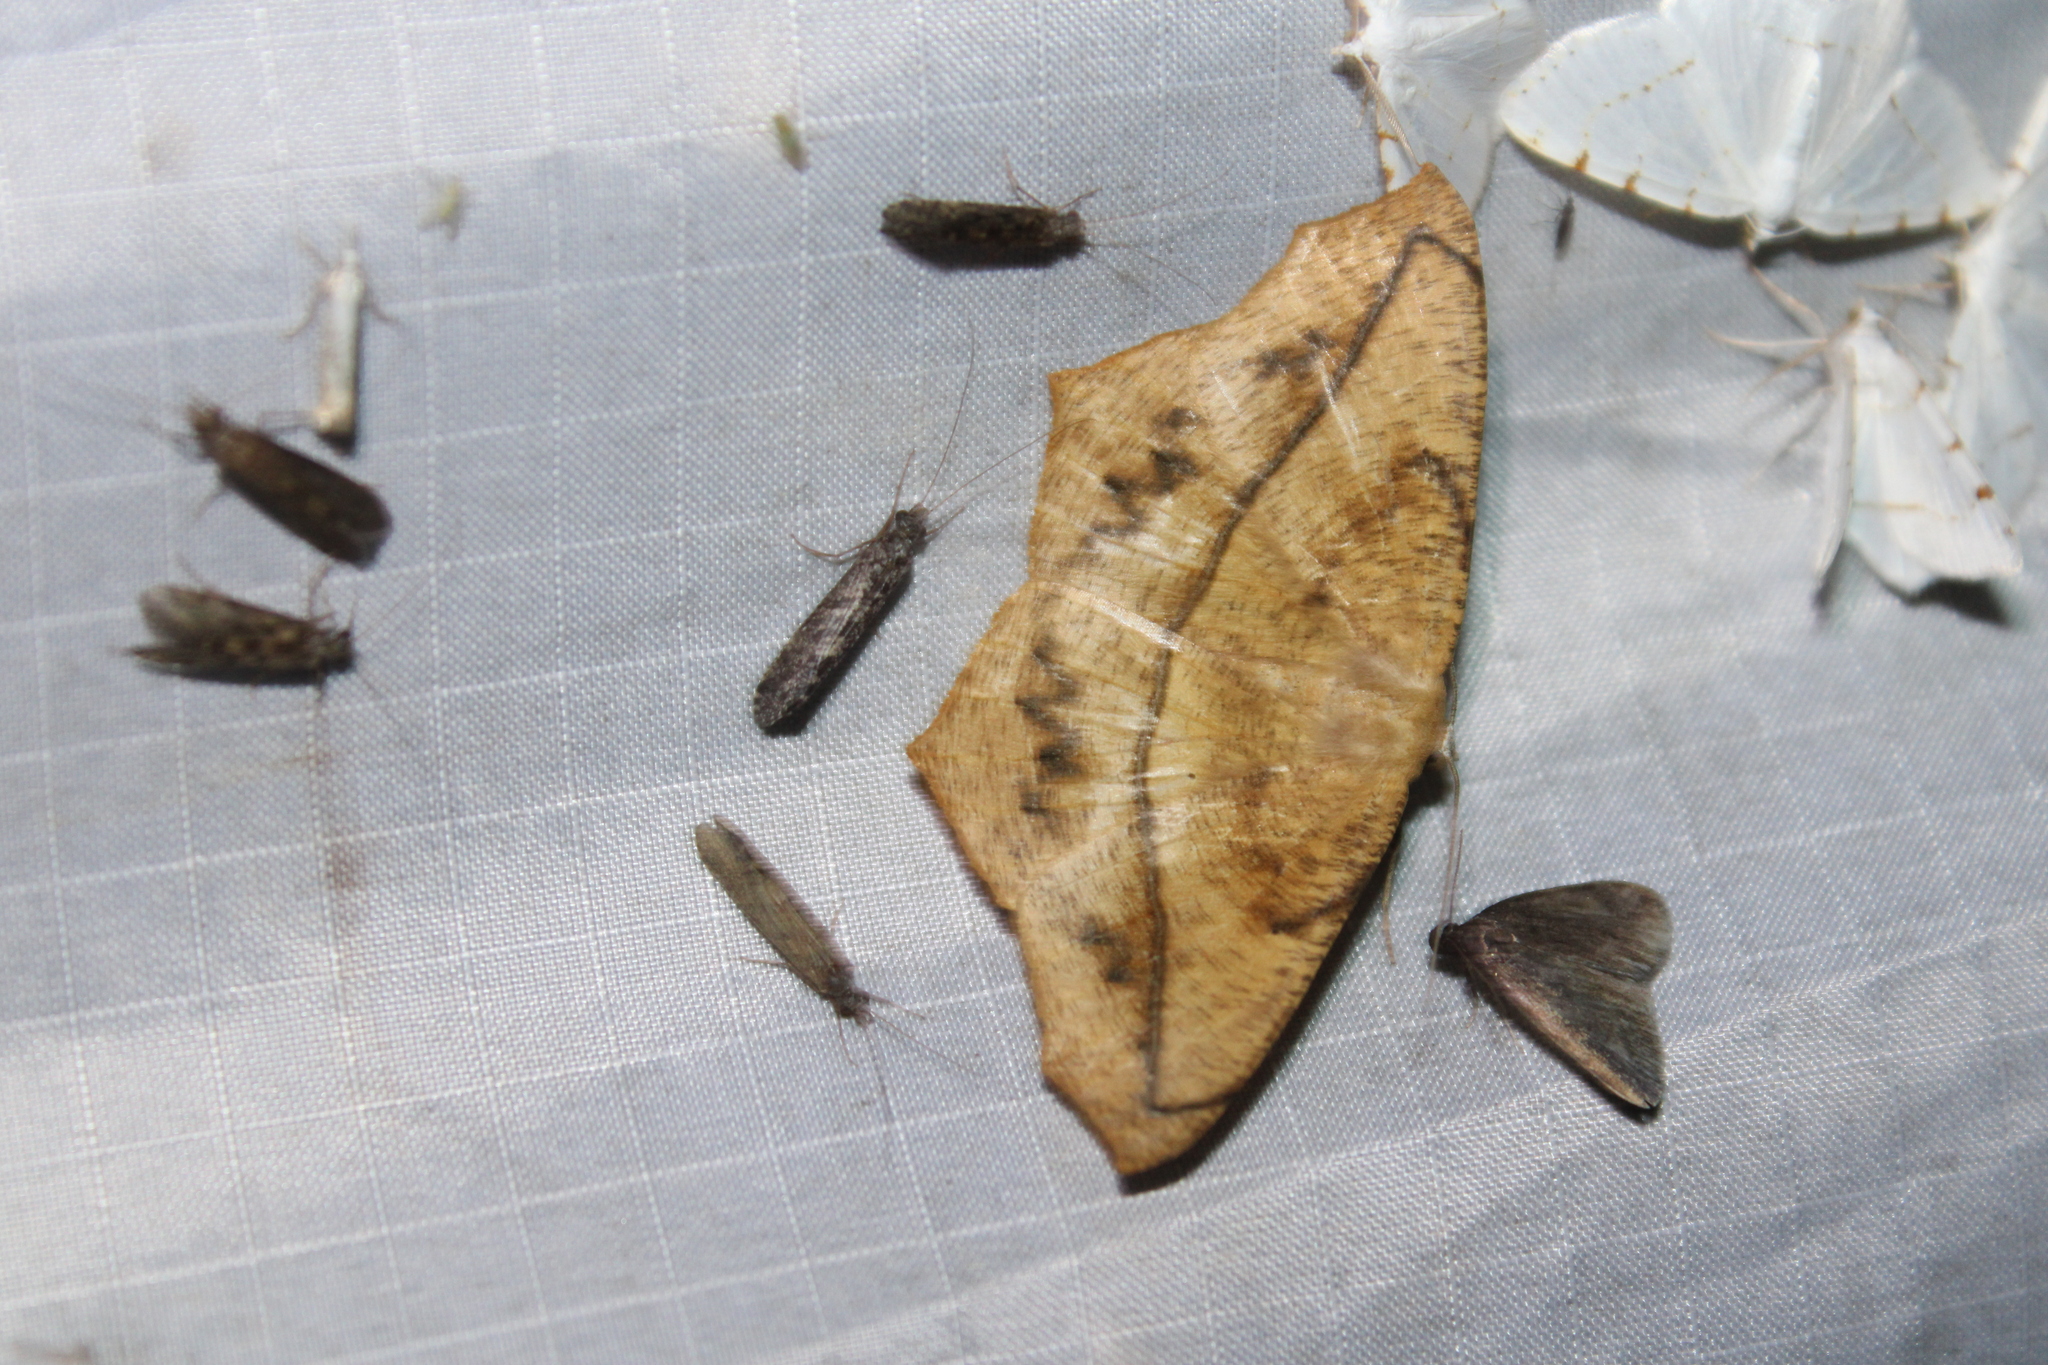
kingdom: Animalia
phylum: Arthropoda
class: Insecta
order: Lepidoptera
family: Geometridae
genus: Prochoerodes
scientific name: Prochoerodes lineola
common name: Large maple spanworm
